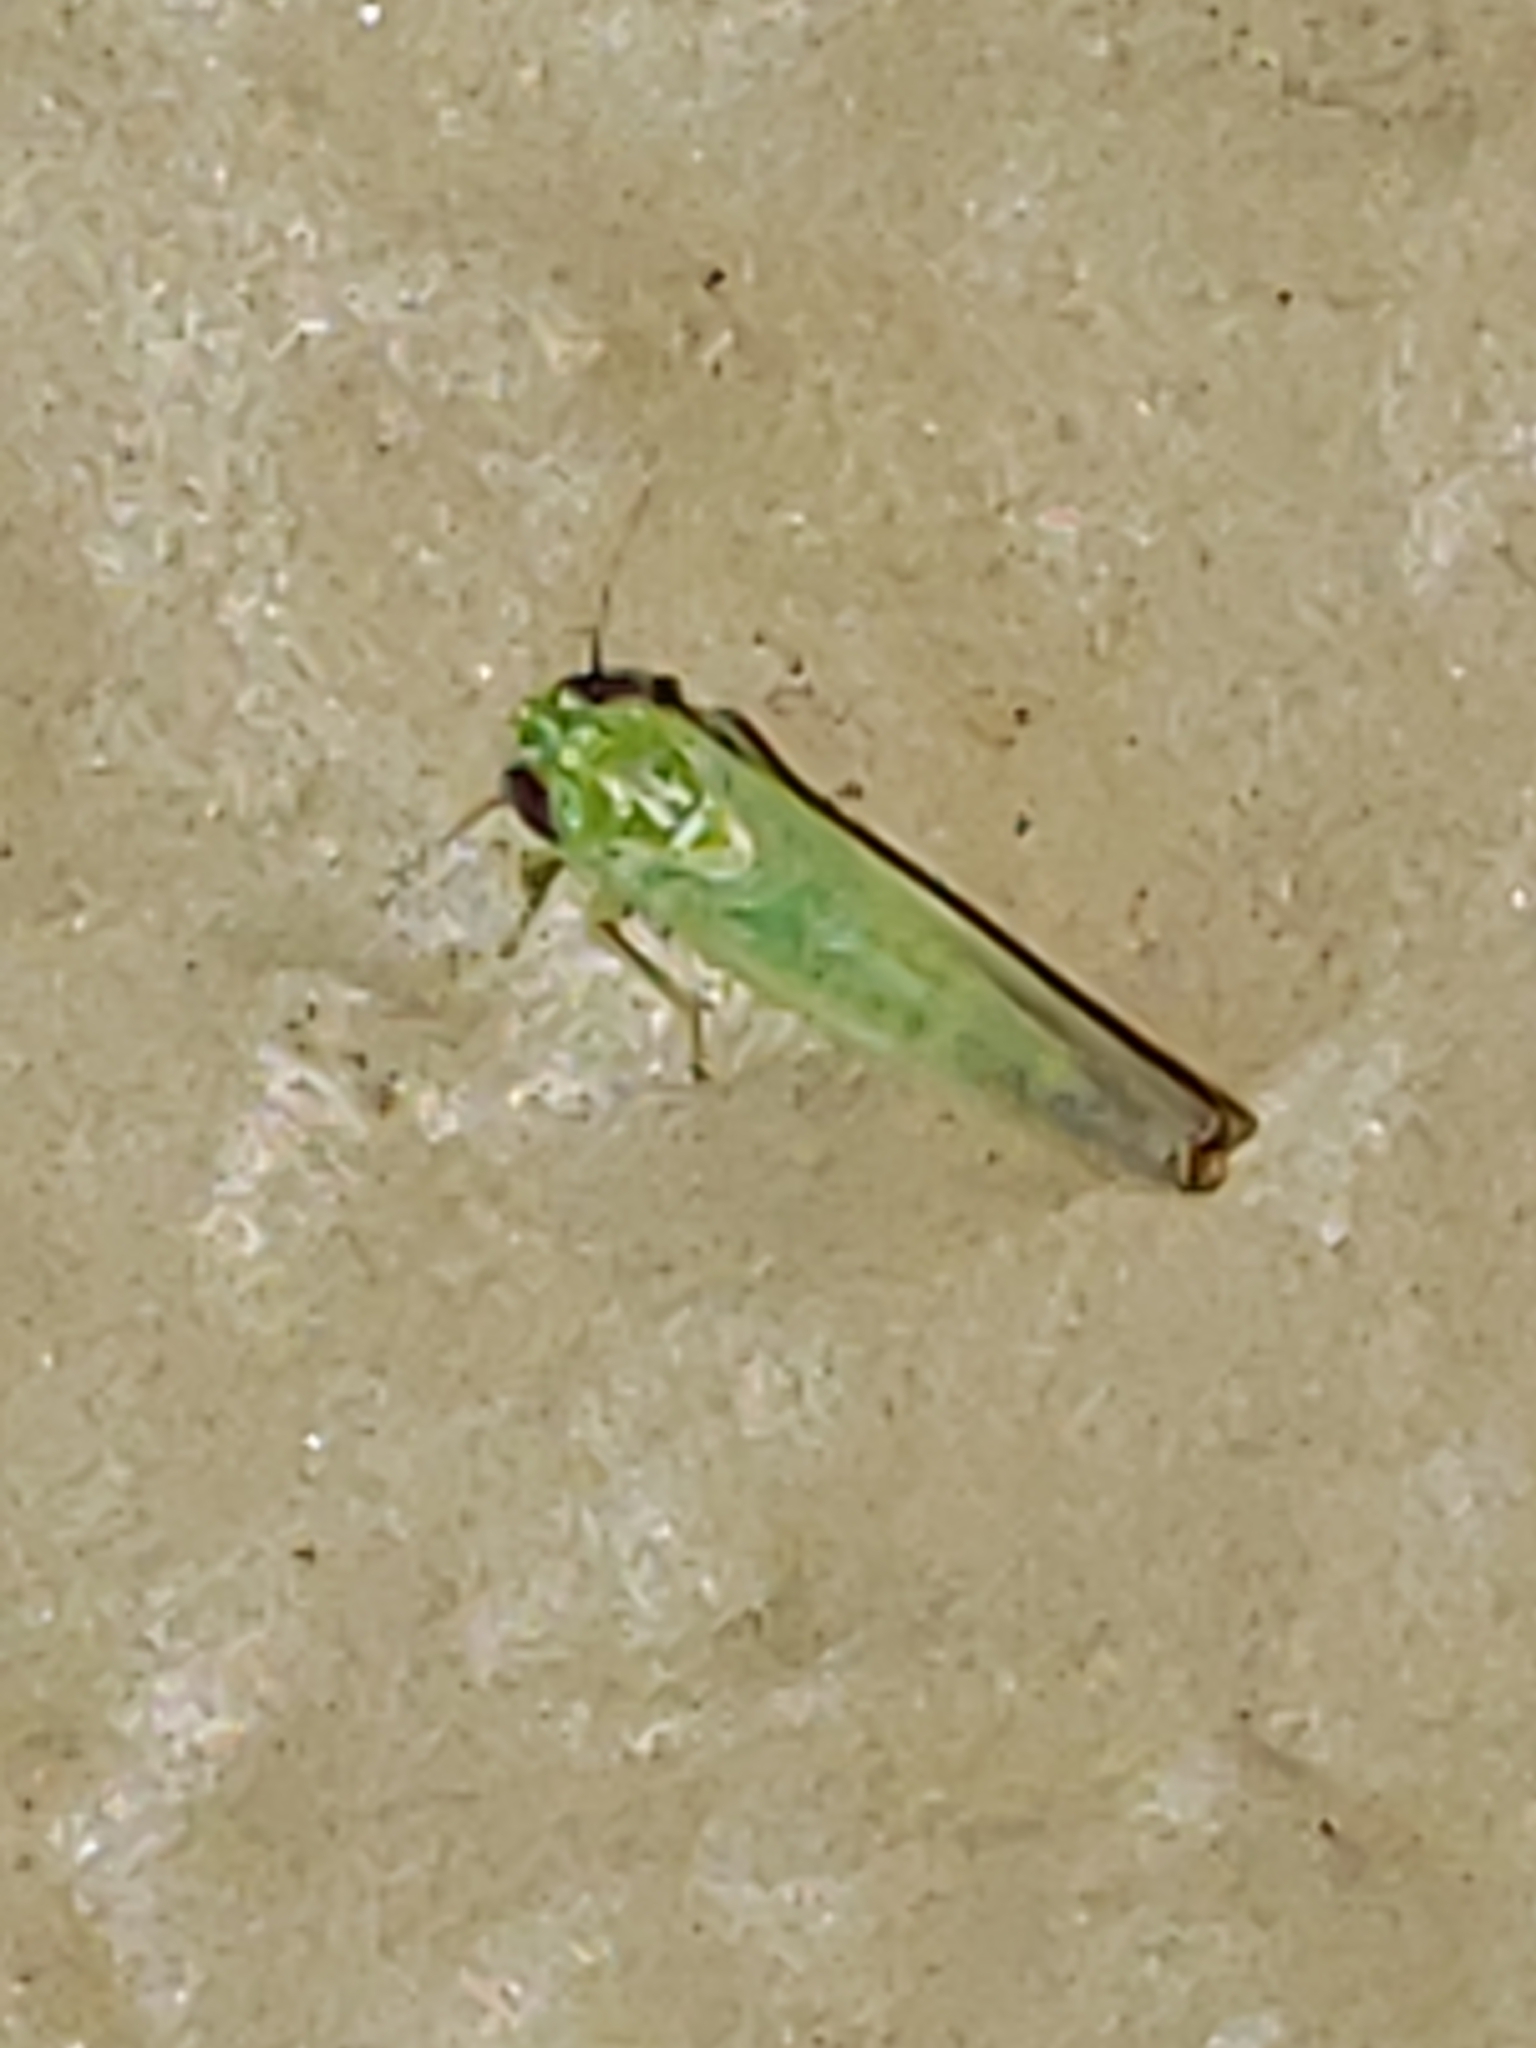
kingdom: Animalia
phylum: Arthropoda
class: Insecta
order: Hemiptera
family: Cicadellidae
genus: Empoasca
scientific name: Empoasca fabae
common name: Potato leafhopper
